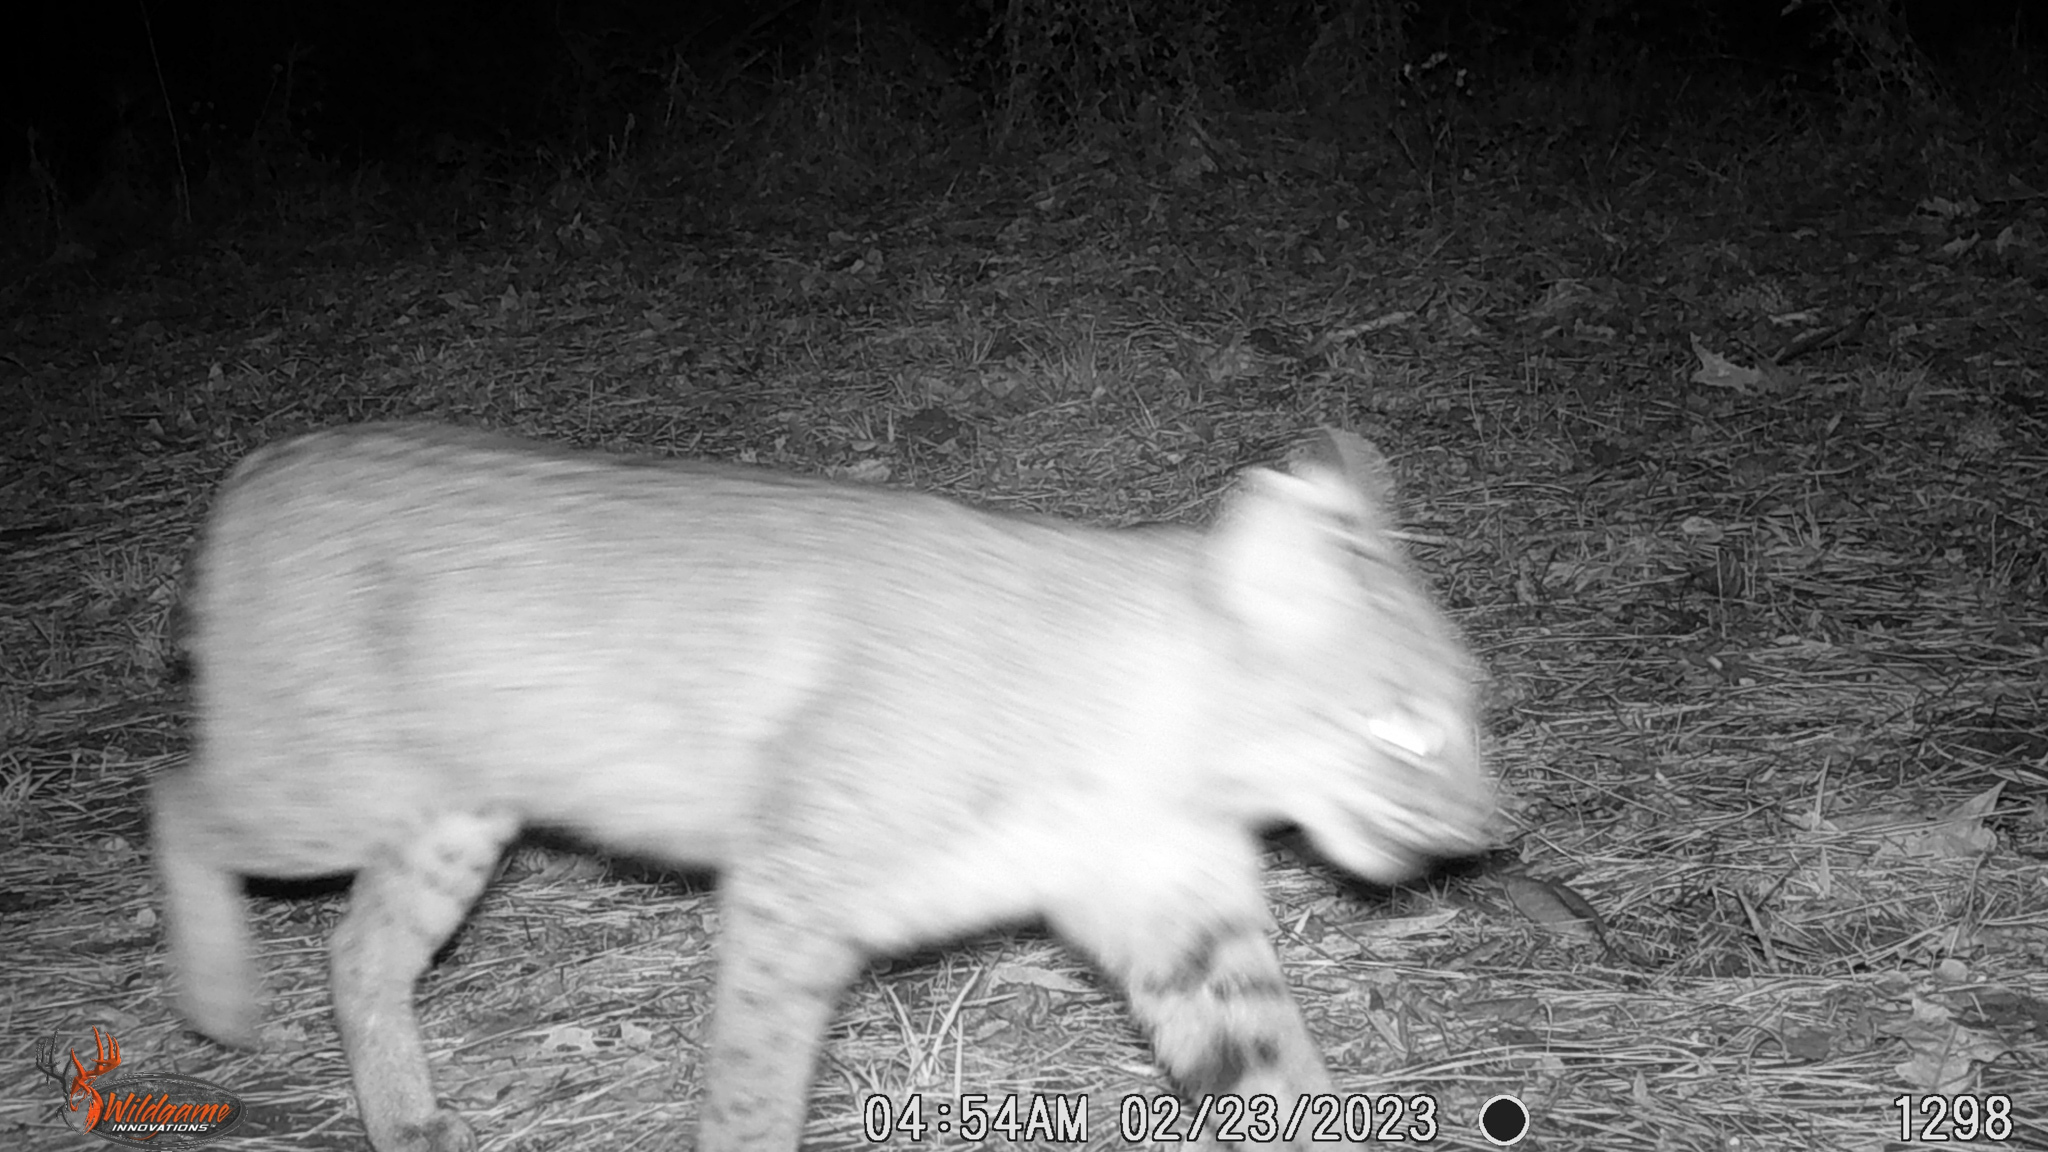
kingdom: Animalia
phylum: Chordata
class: Mammalia
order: Carnivora
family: Felidae
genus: Lynx
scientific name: Lynx rufus
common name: Bobcat
